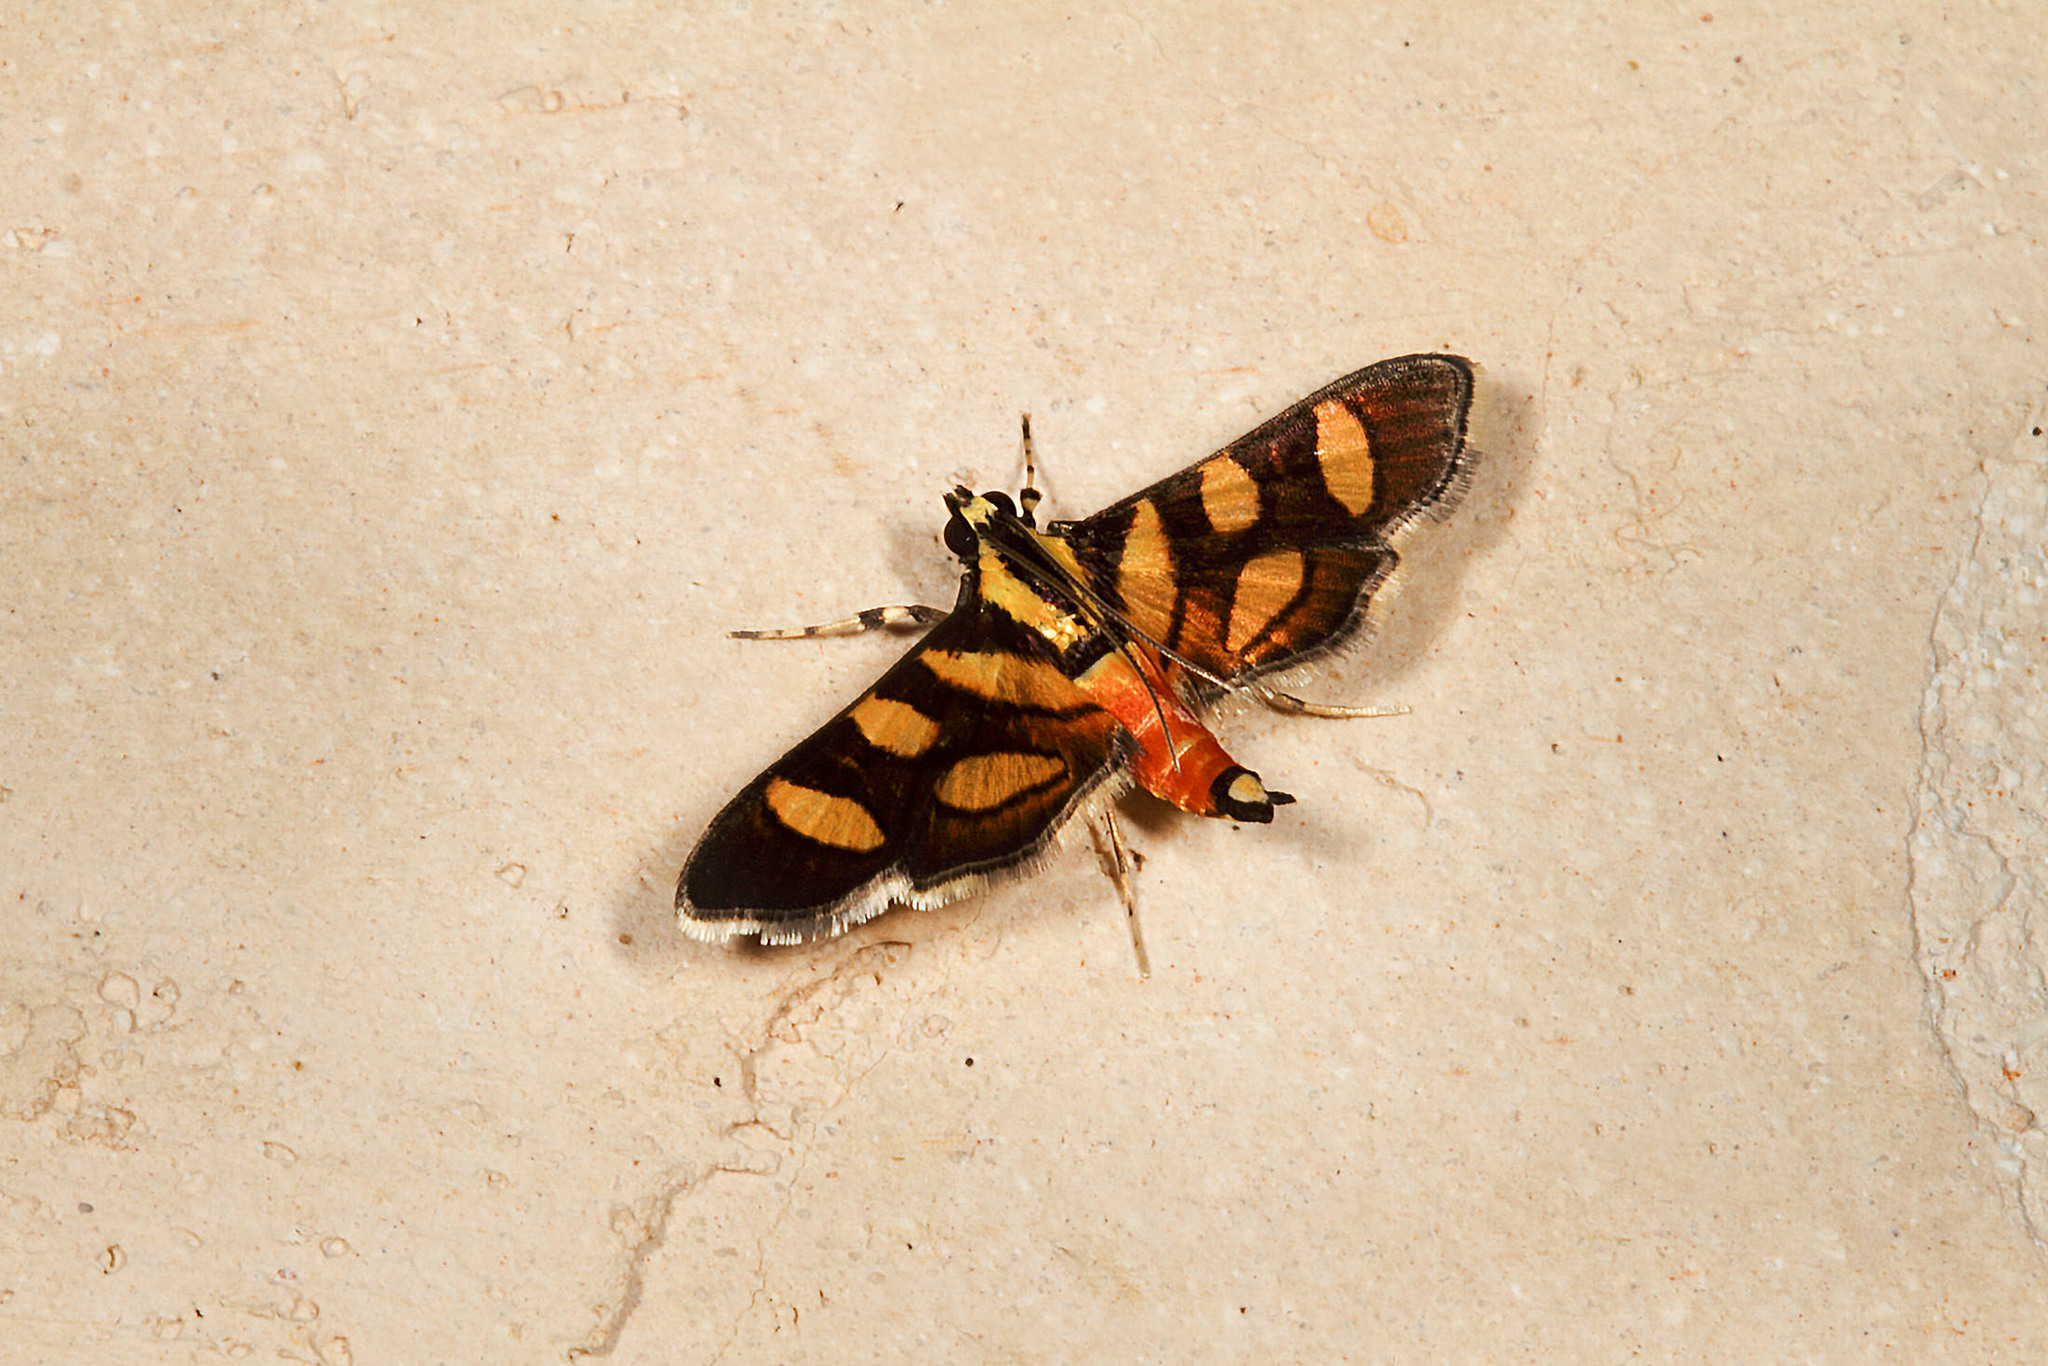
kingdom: Animalia
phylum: Arthropoda
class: Insecta
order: Lepidoptera
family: Crambidae
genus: Syngamia
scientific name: Syngamia florella
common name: Orange-spotted flower moth
